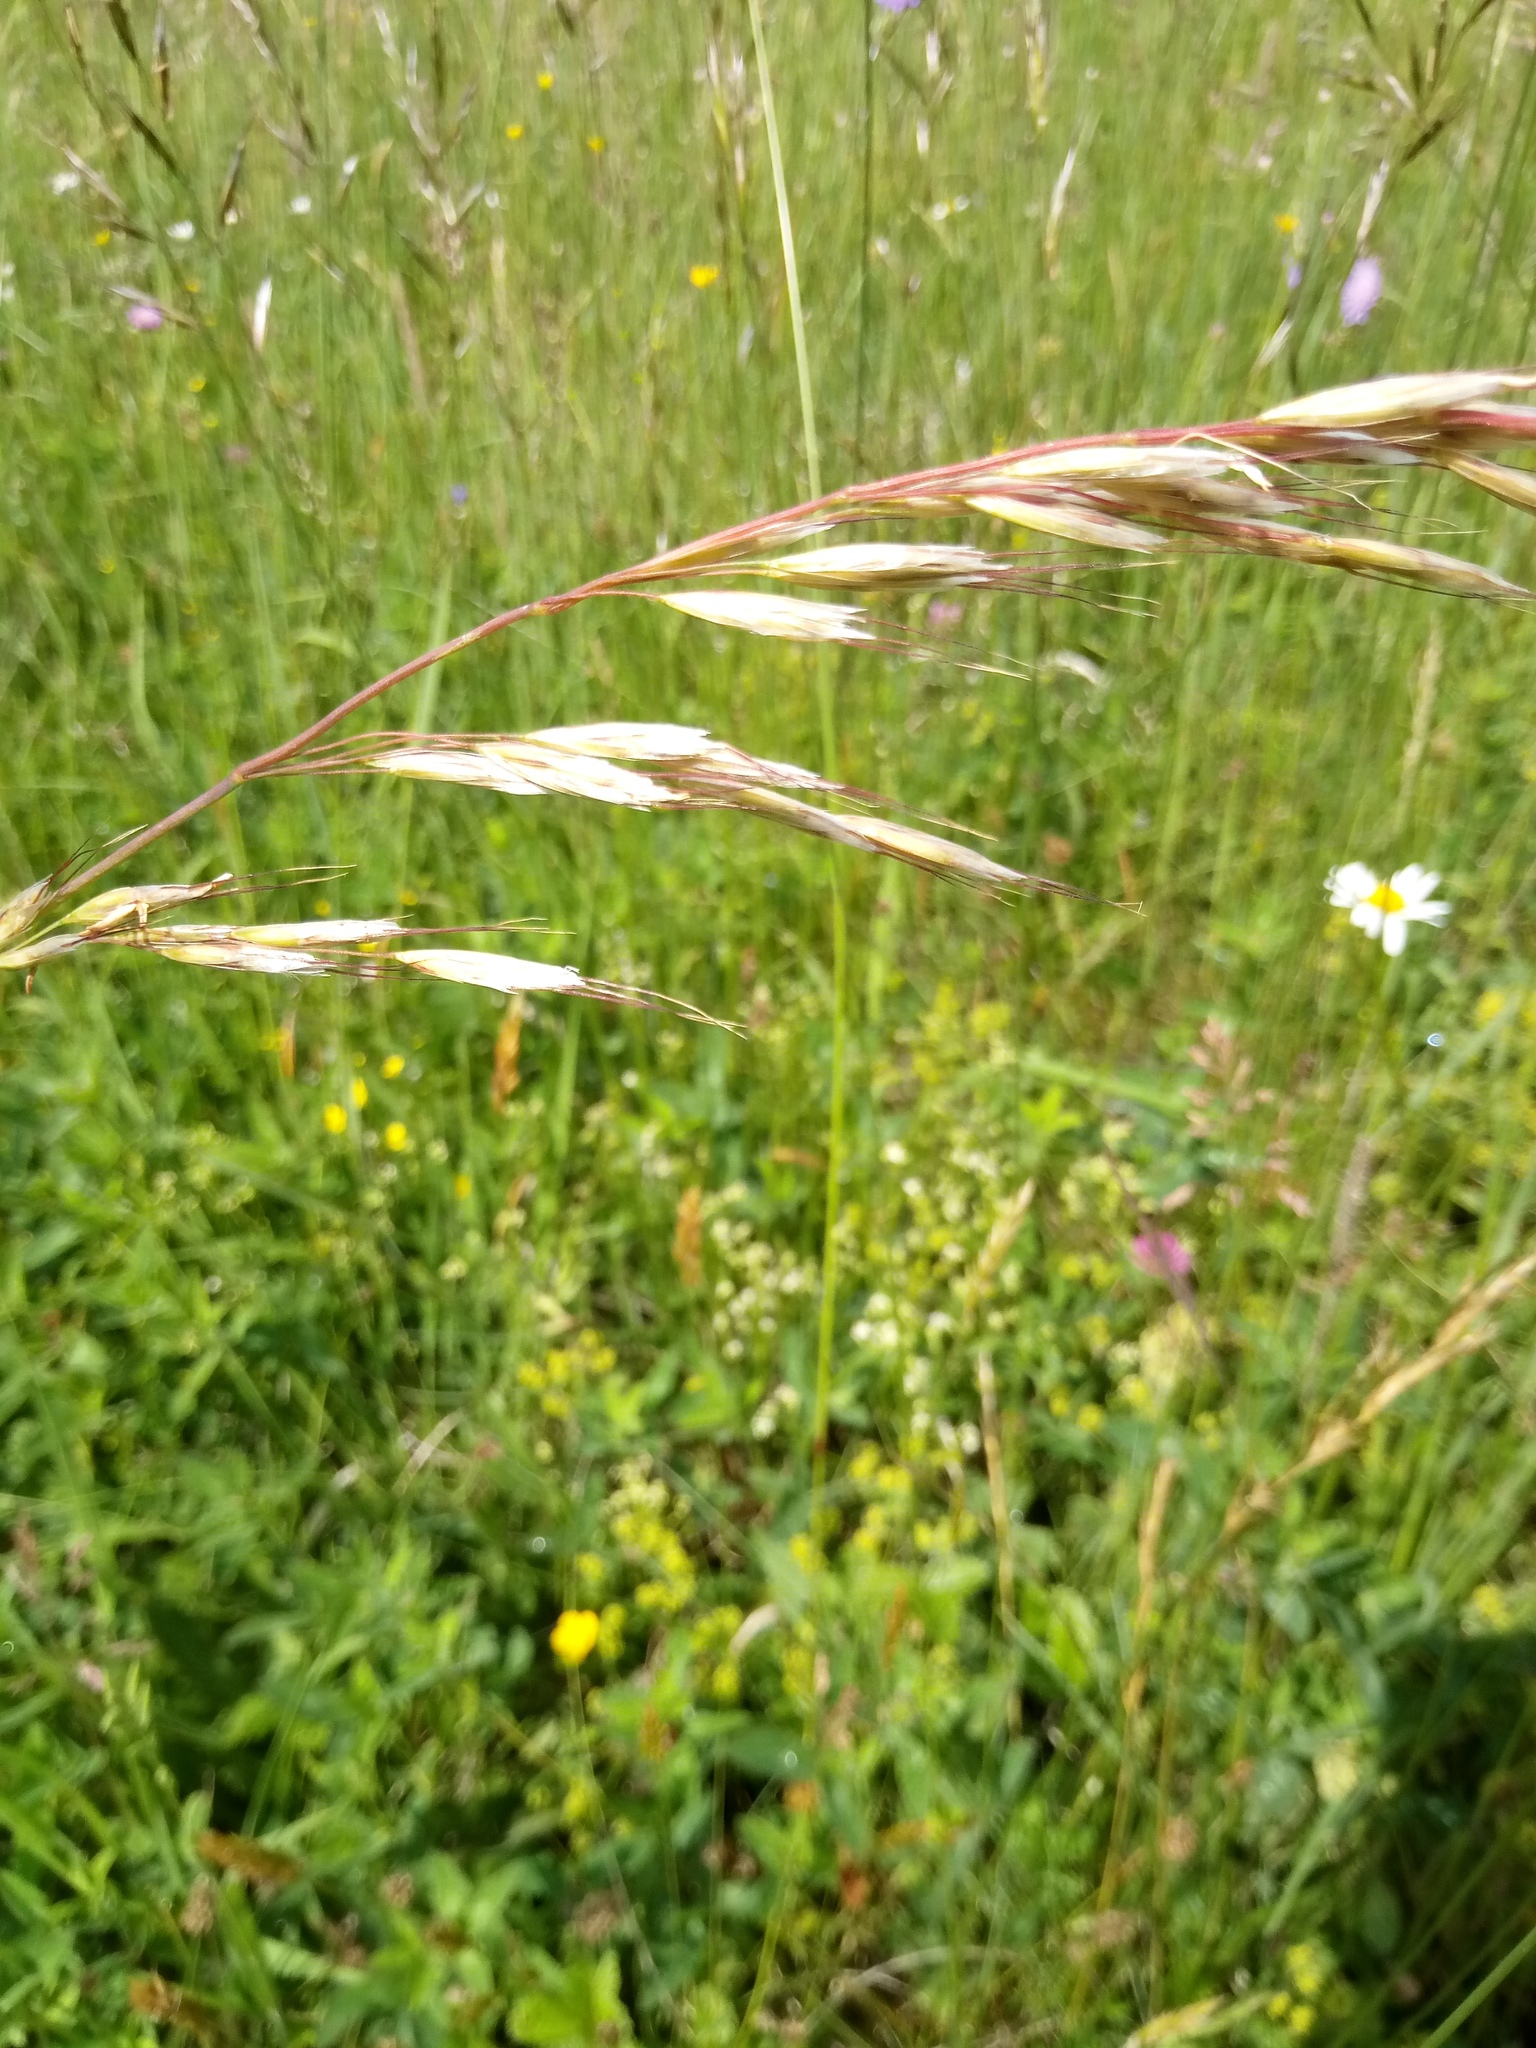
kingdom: Plantae
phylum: Tracheophyta
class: Liliopsida
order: Poales
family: Poaceae
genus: Avenula
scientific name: Avenula pubescens
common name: Downy alpine oatgrass
